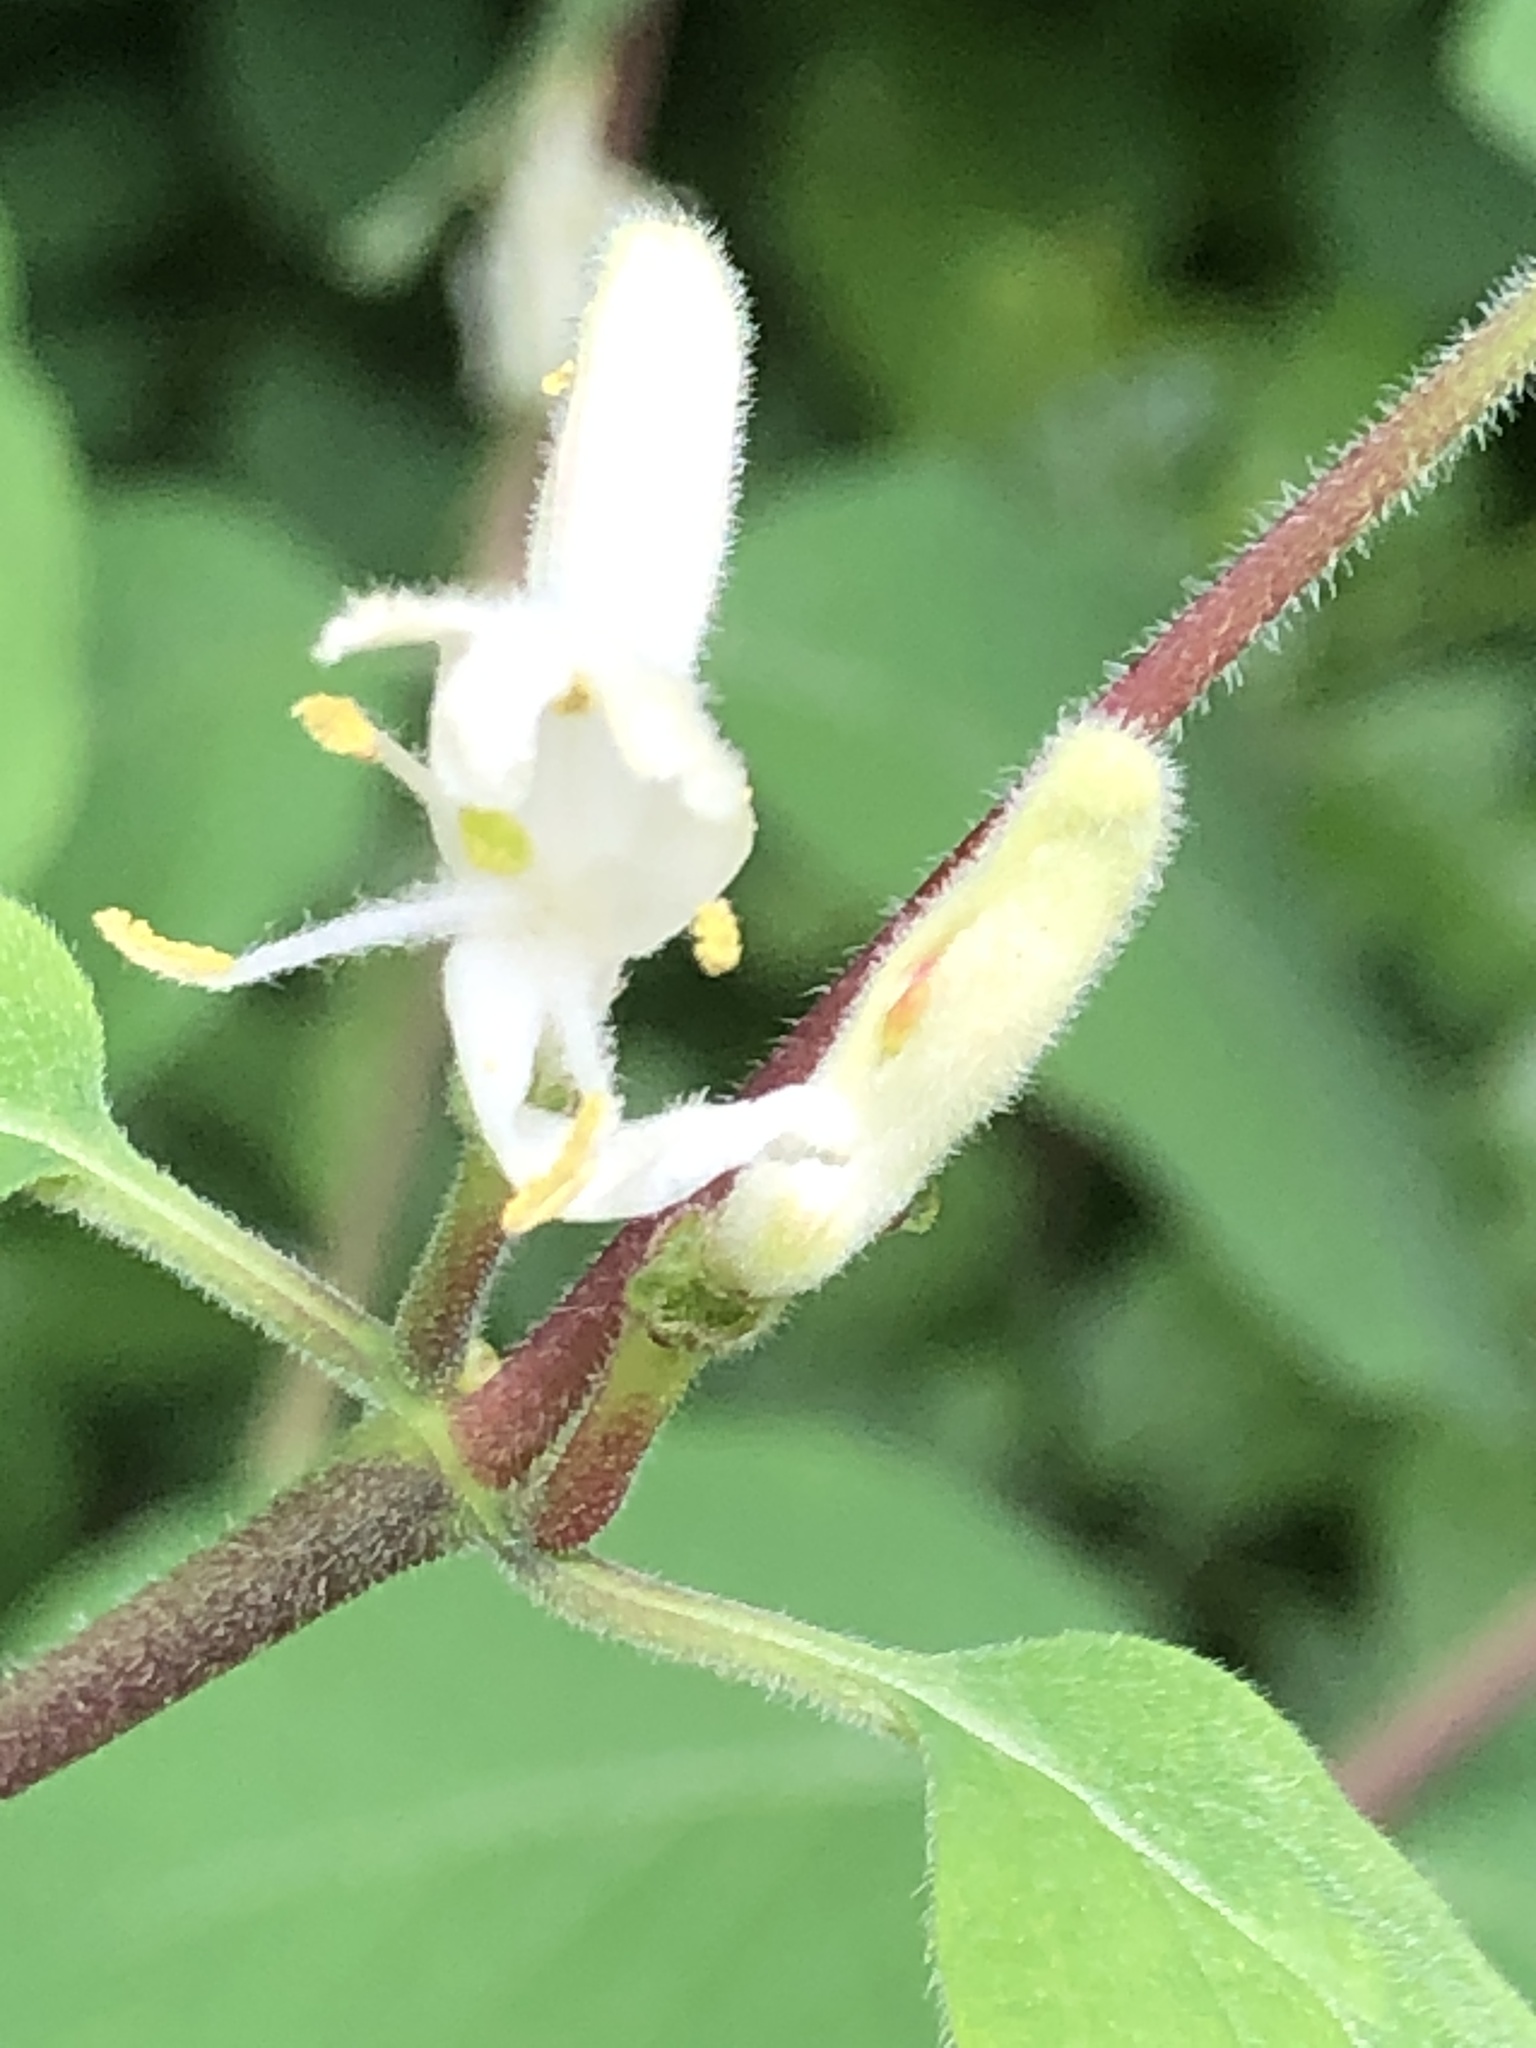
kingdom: Plantae
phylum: Tracheophyta
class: Magnoliopsida
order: Dipsacales
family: Caprifoliaceae
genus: Lonicera
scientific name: Lonicera xylosteum
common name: Fly honeysuckle
